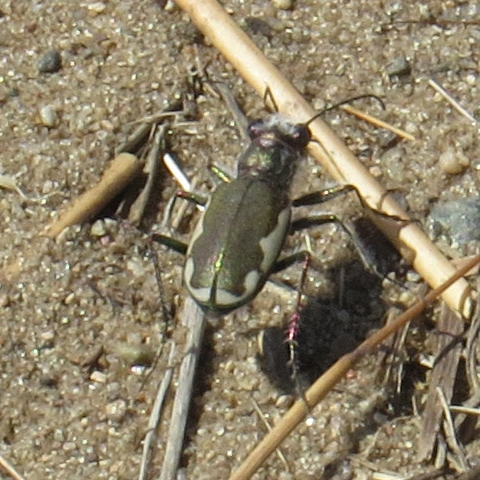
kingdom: Animalia
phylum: Arthropoda
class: Insecta
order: Coleoptera
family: Carabidae
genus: Cicindela
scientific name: Cicindela scutellaris
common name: Festive tiger beetle
